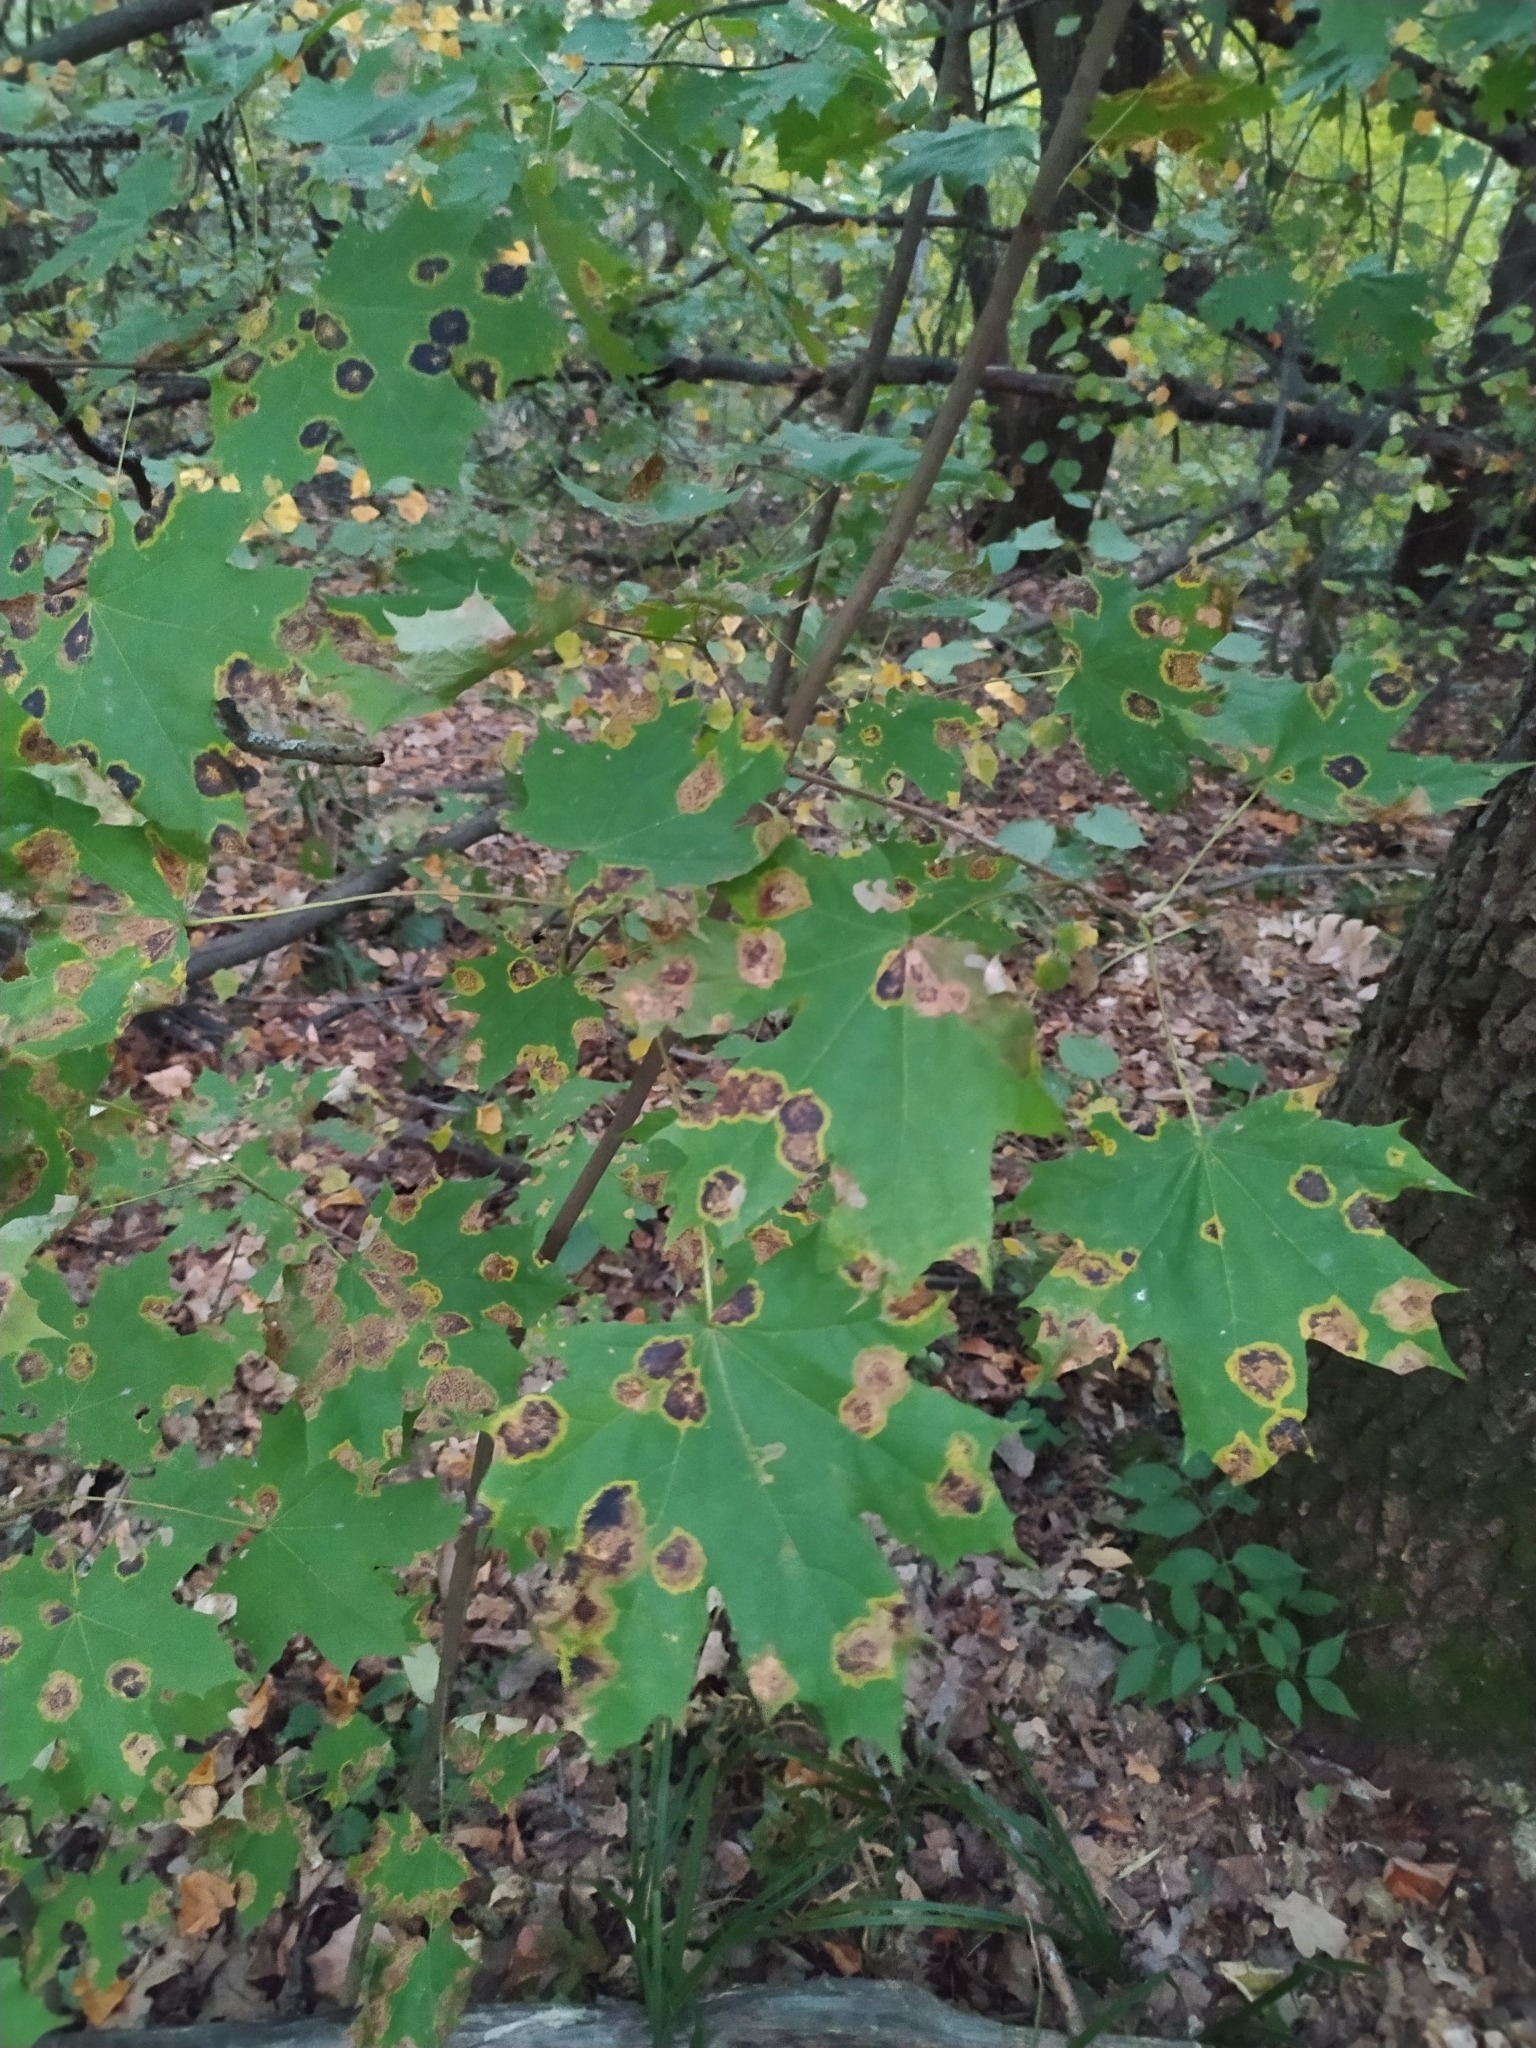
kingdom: Fungi
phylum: Ascomycota
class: Leotiomycetes
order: Rhytismatales
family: Rhytismataceae
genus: Rhytisma
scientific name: Rhytisma acerinum
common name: European tar spot
